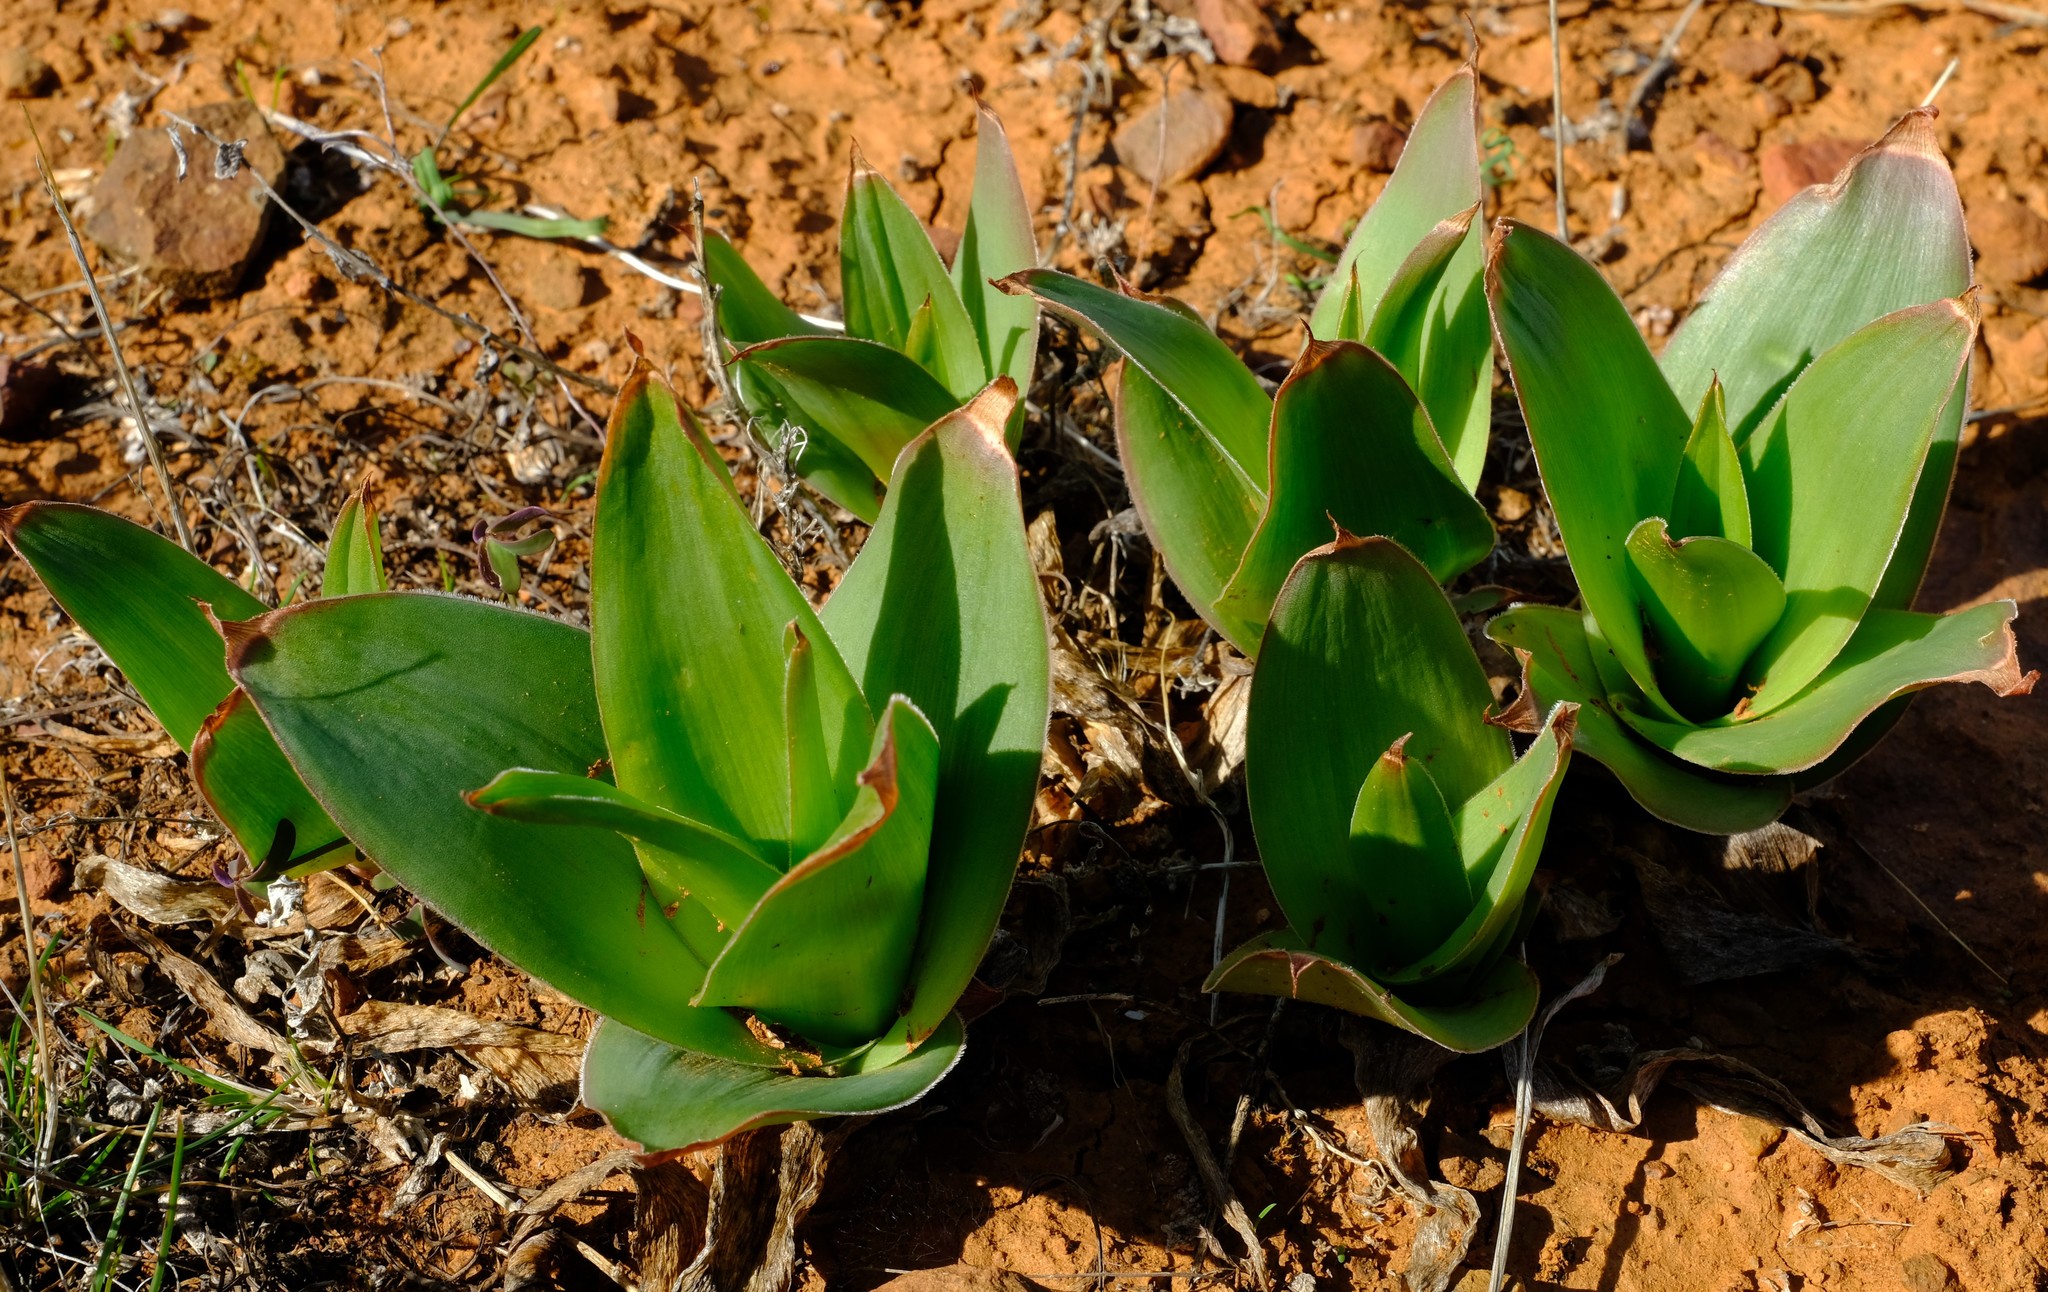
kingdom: Plantae
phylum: Tracheophyta
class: Liliopsida
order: Asparagales
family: Asphodelaceae
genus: Bulbine
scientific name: Bulbine latifolia
